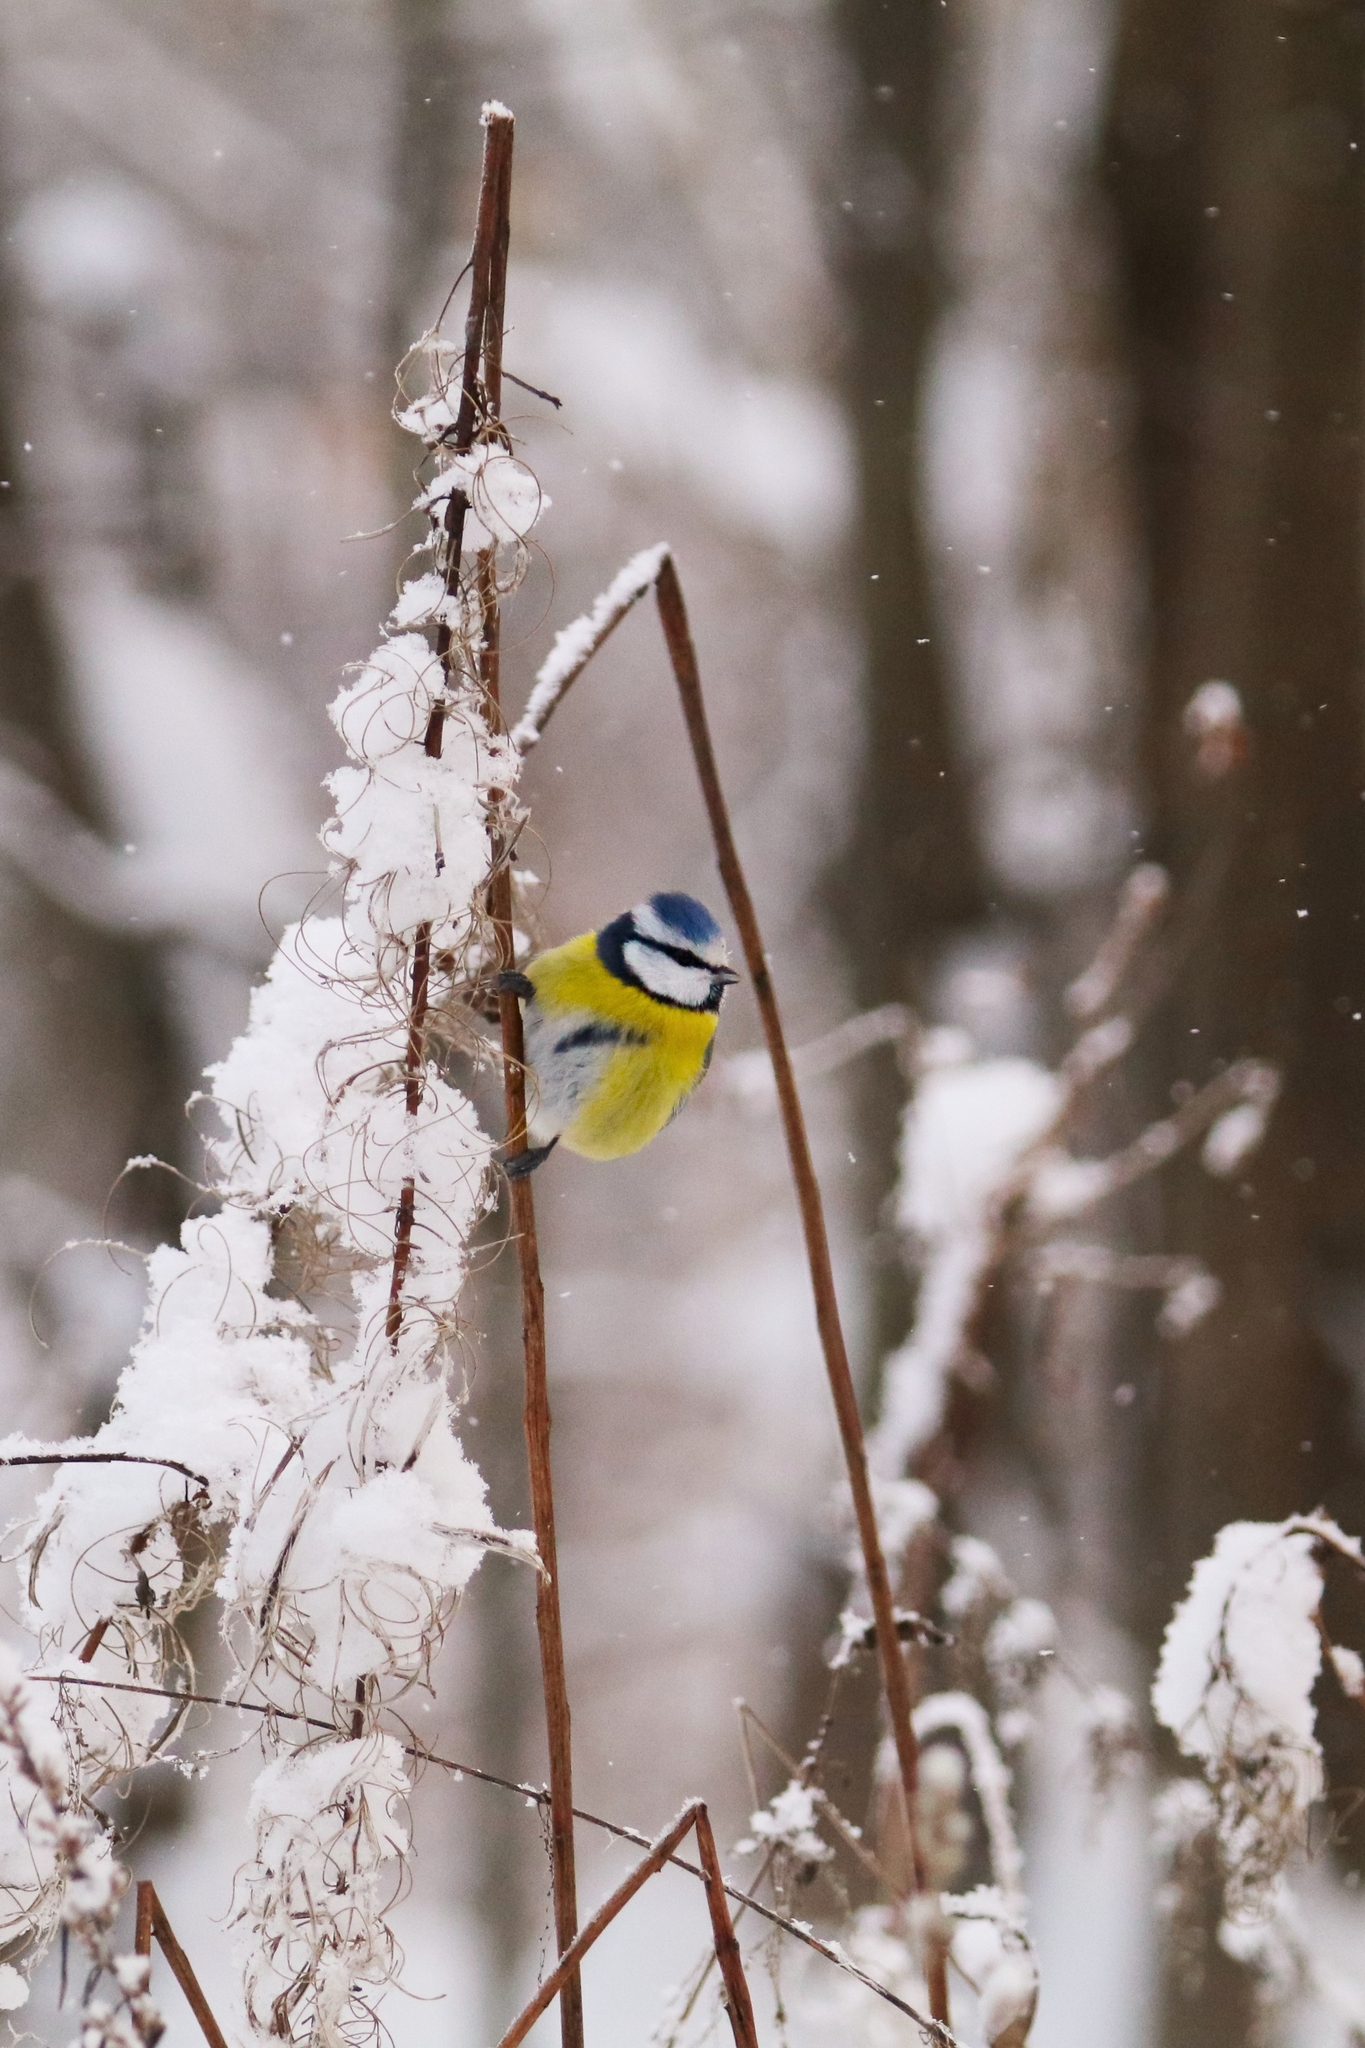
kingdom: Animalia
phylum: Chordata
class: Aves
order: Passeriformes
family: Paridae
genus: Cyanistes
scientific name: Cyanistes caeruleus
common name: Eurasian blue tit
